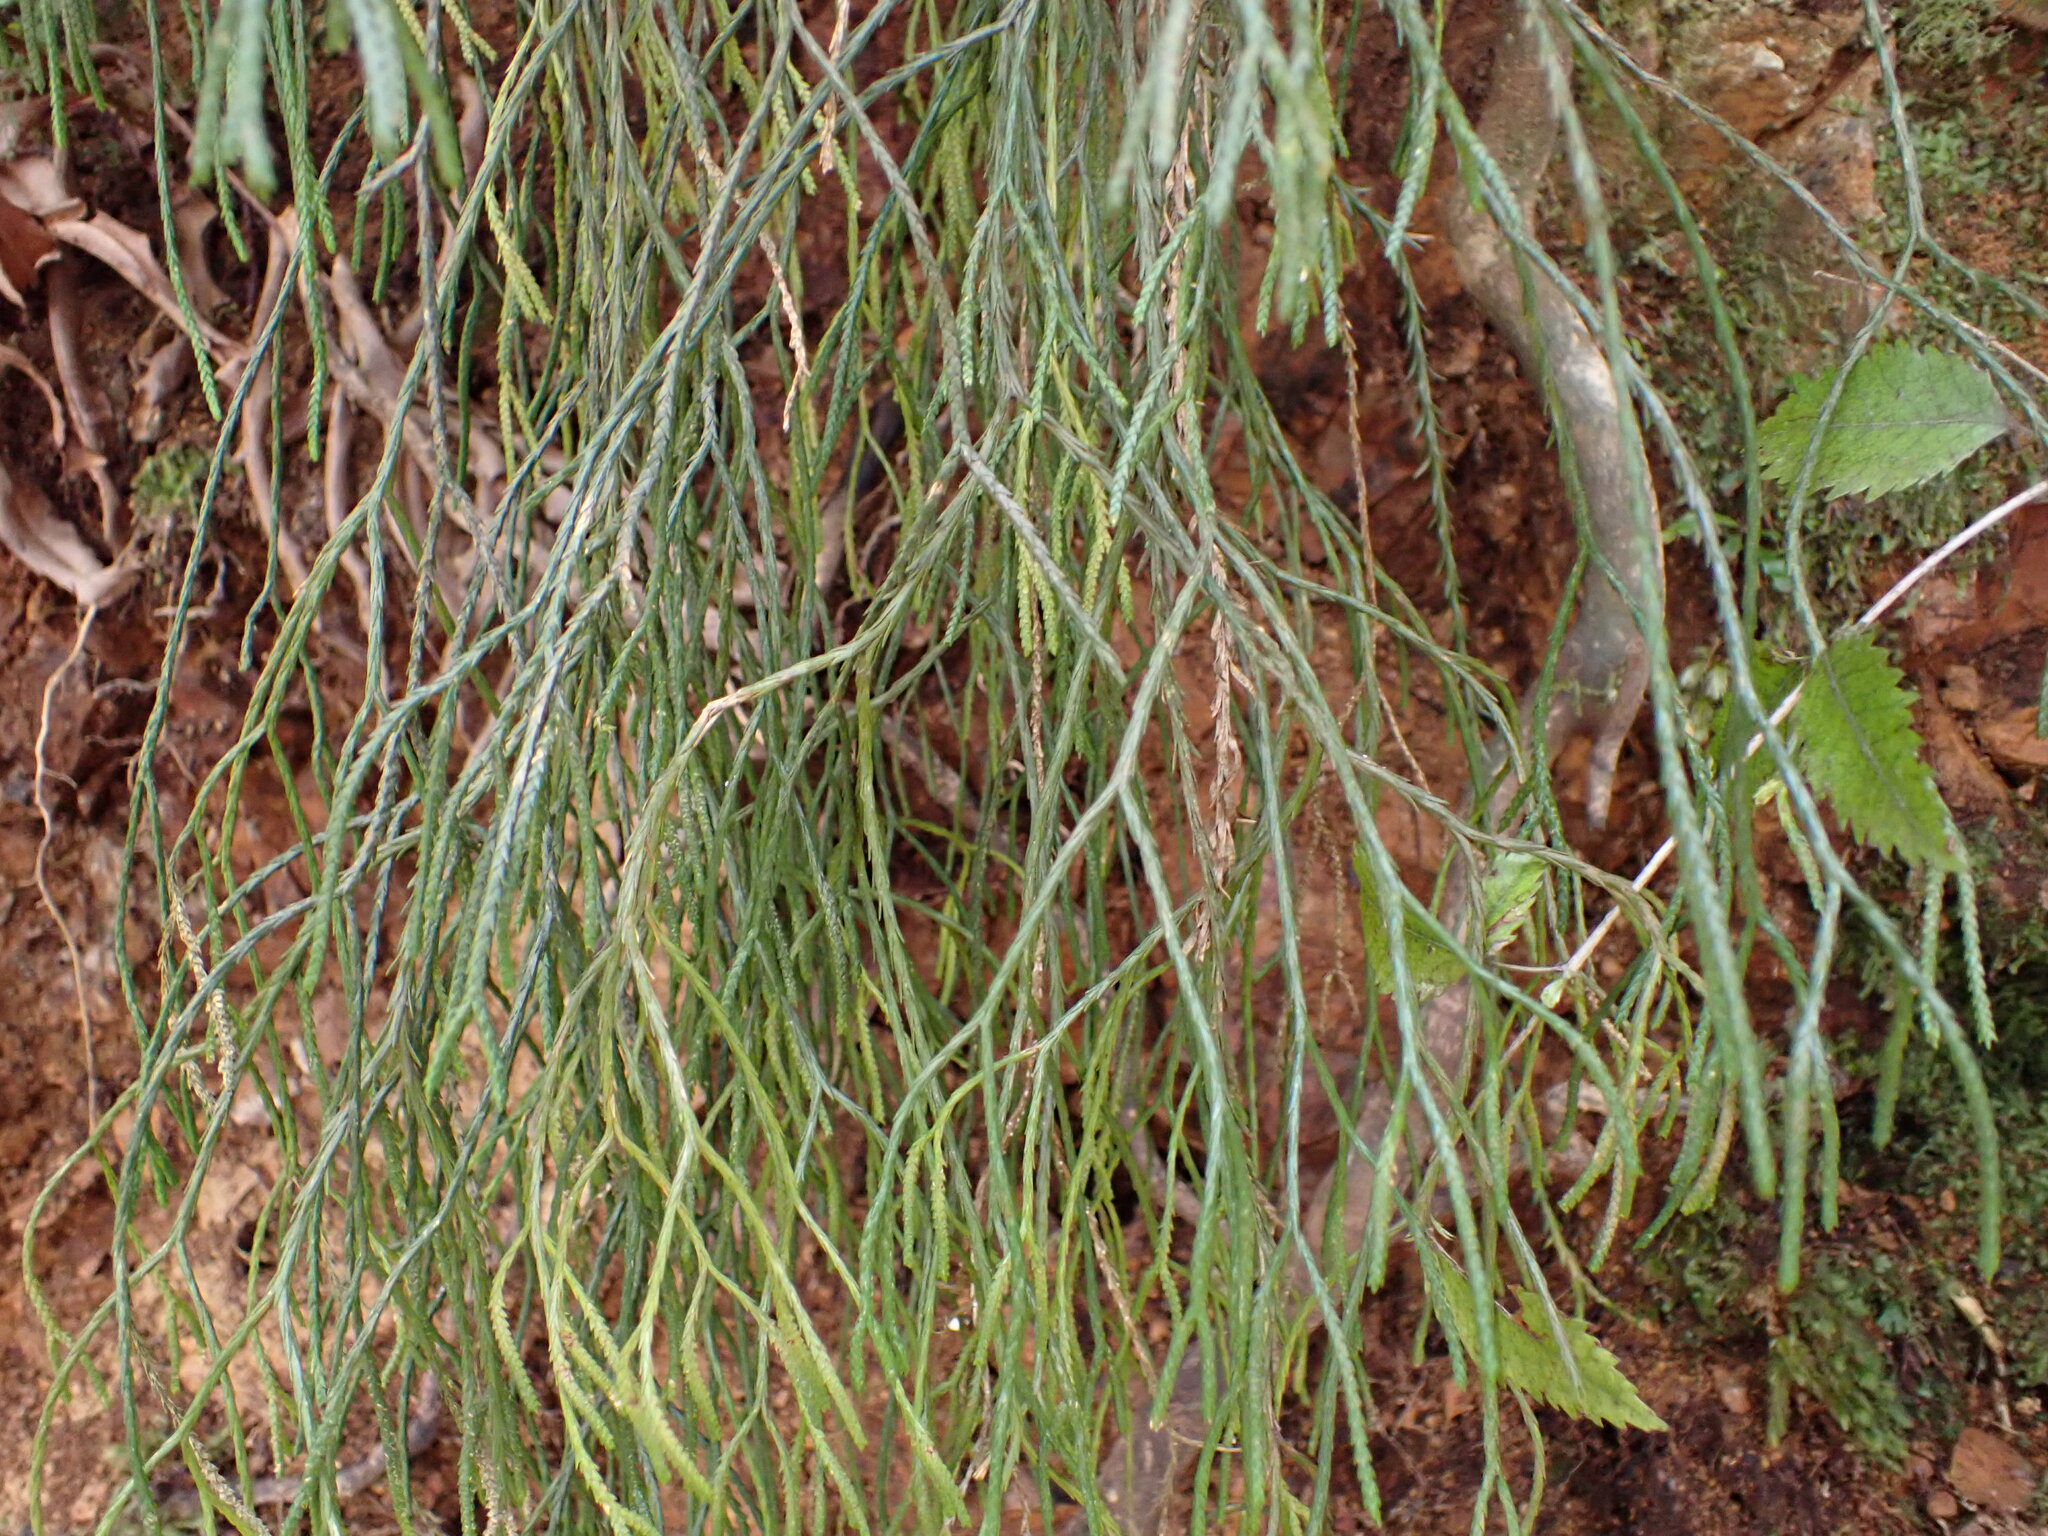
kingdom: Plantae
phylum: Tracheophyta
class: Lycopodiopsida
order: Lycopodiales
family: Lycopodiaceae
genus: Phlegmariurus
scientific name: Phlegmariurus billardierei
